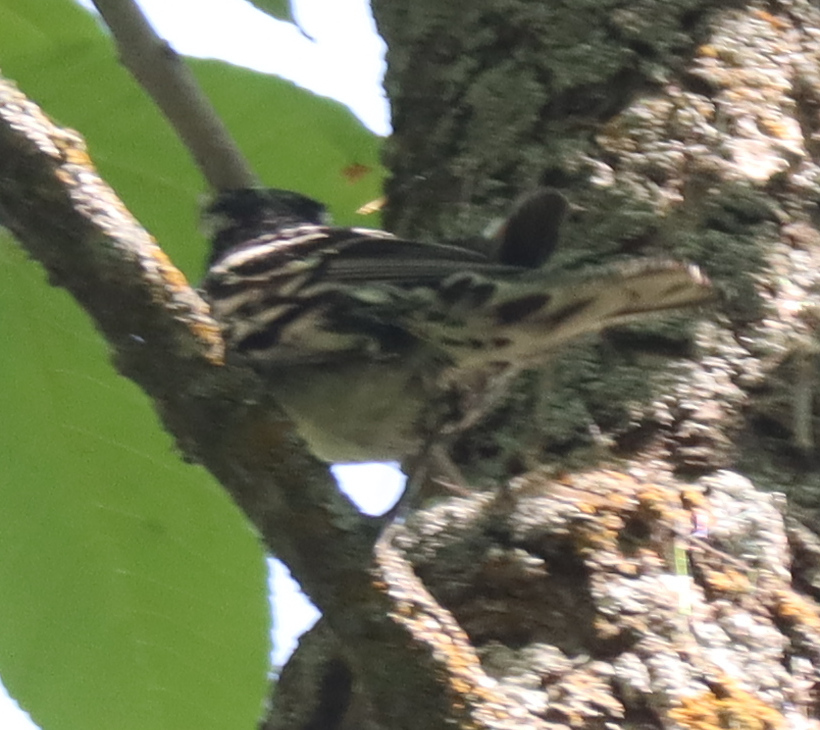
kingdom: Animalia
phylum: Chordata
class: Aves
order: Passeriformes
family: Parulidae
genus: Mniotilta
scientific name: Mniotilta varia
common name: Black-and-white warbler
